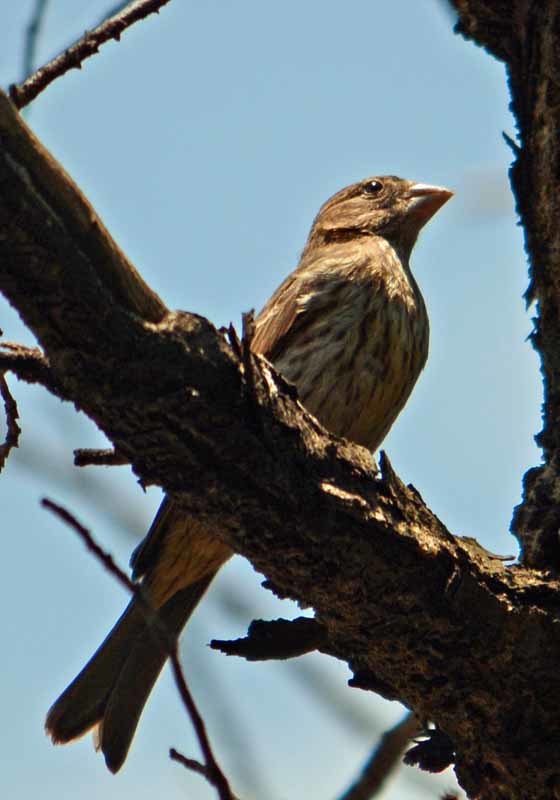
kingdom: Animalia
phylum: Chordata
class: Aves
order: Passeriformes
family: Fringillidae
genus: Haemorhous
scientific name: Haemorhous mexicanus
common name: House finch
